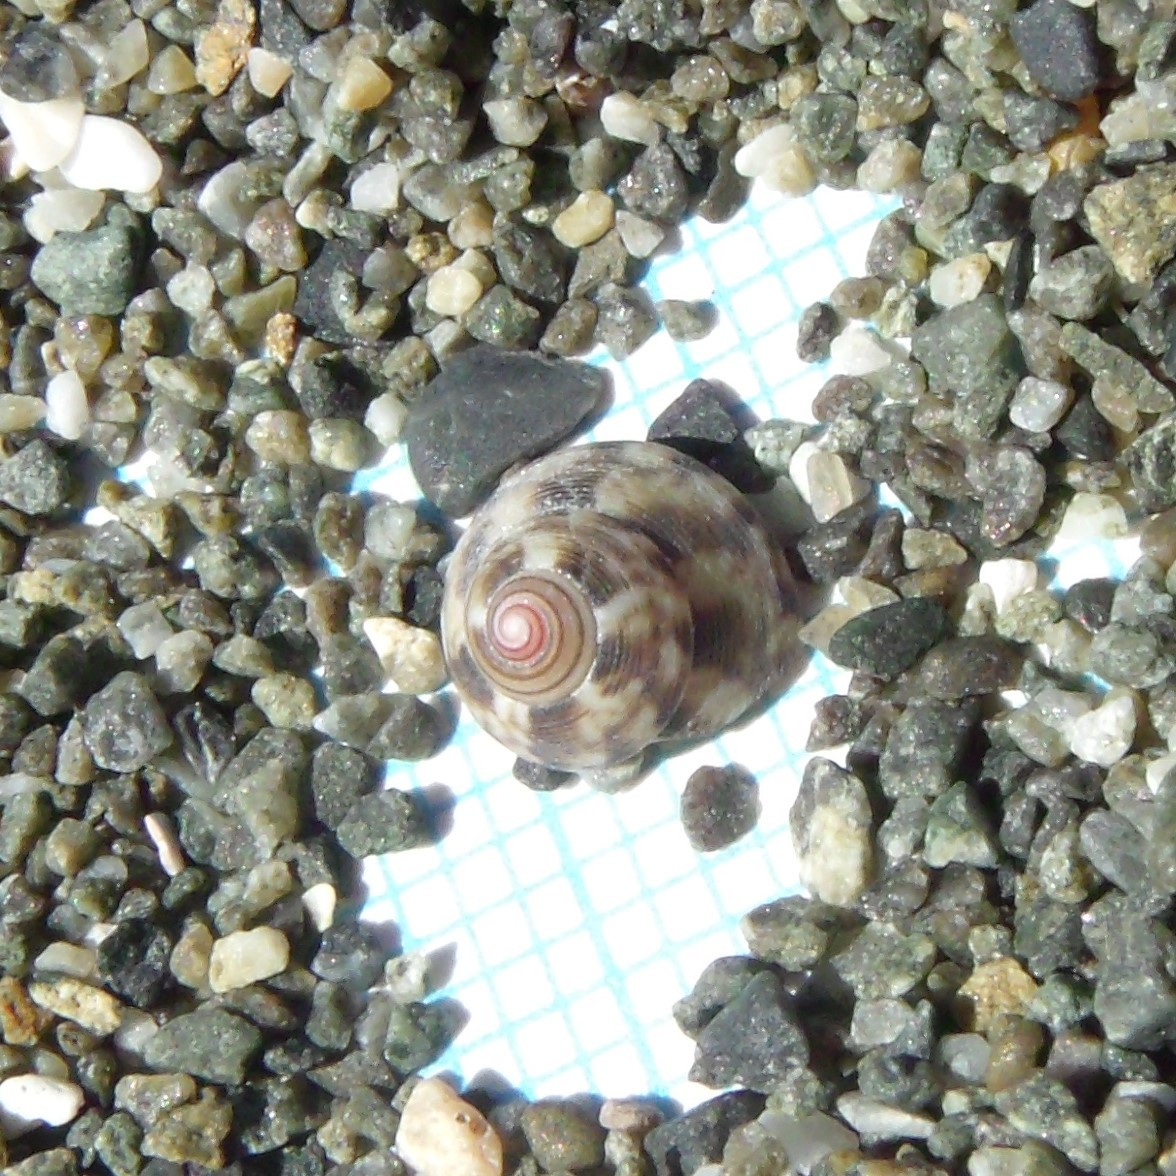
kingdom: Animalia
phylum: Mollusca
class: Gastropoda
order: Trochida
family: Trochidae
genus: Coelotrochus
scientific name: Coelotrochus chathamensis
